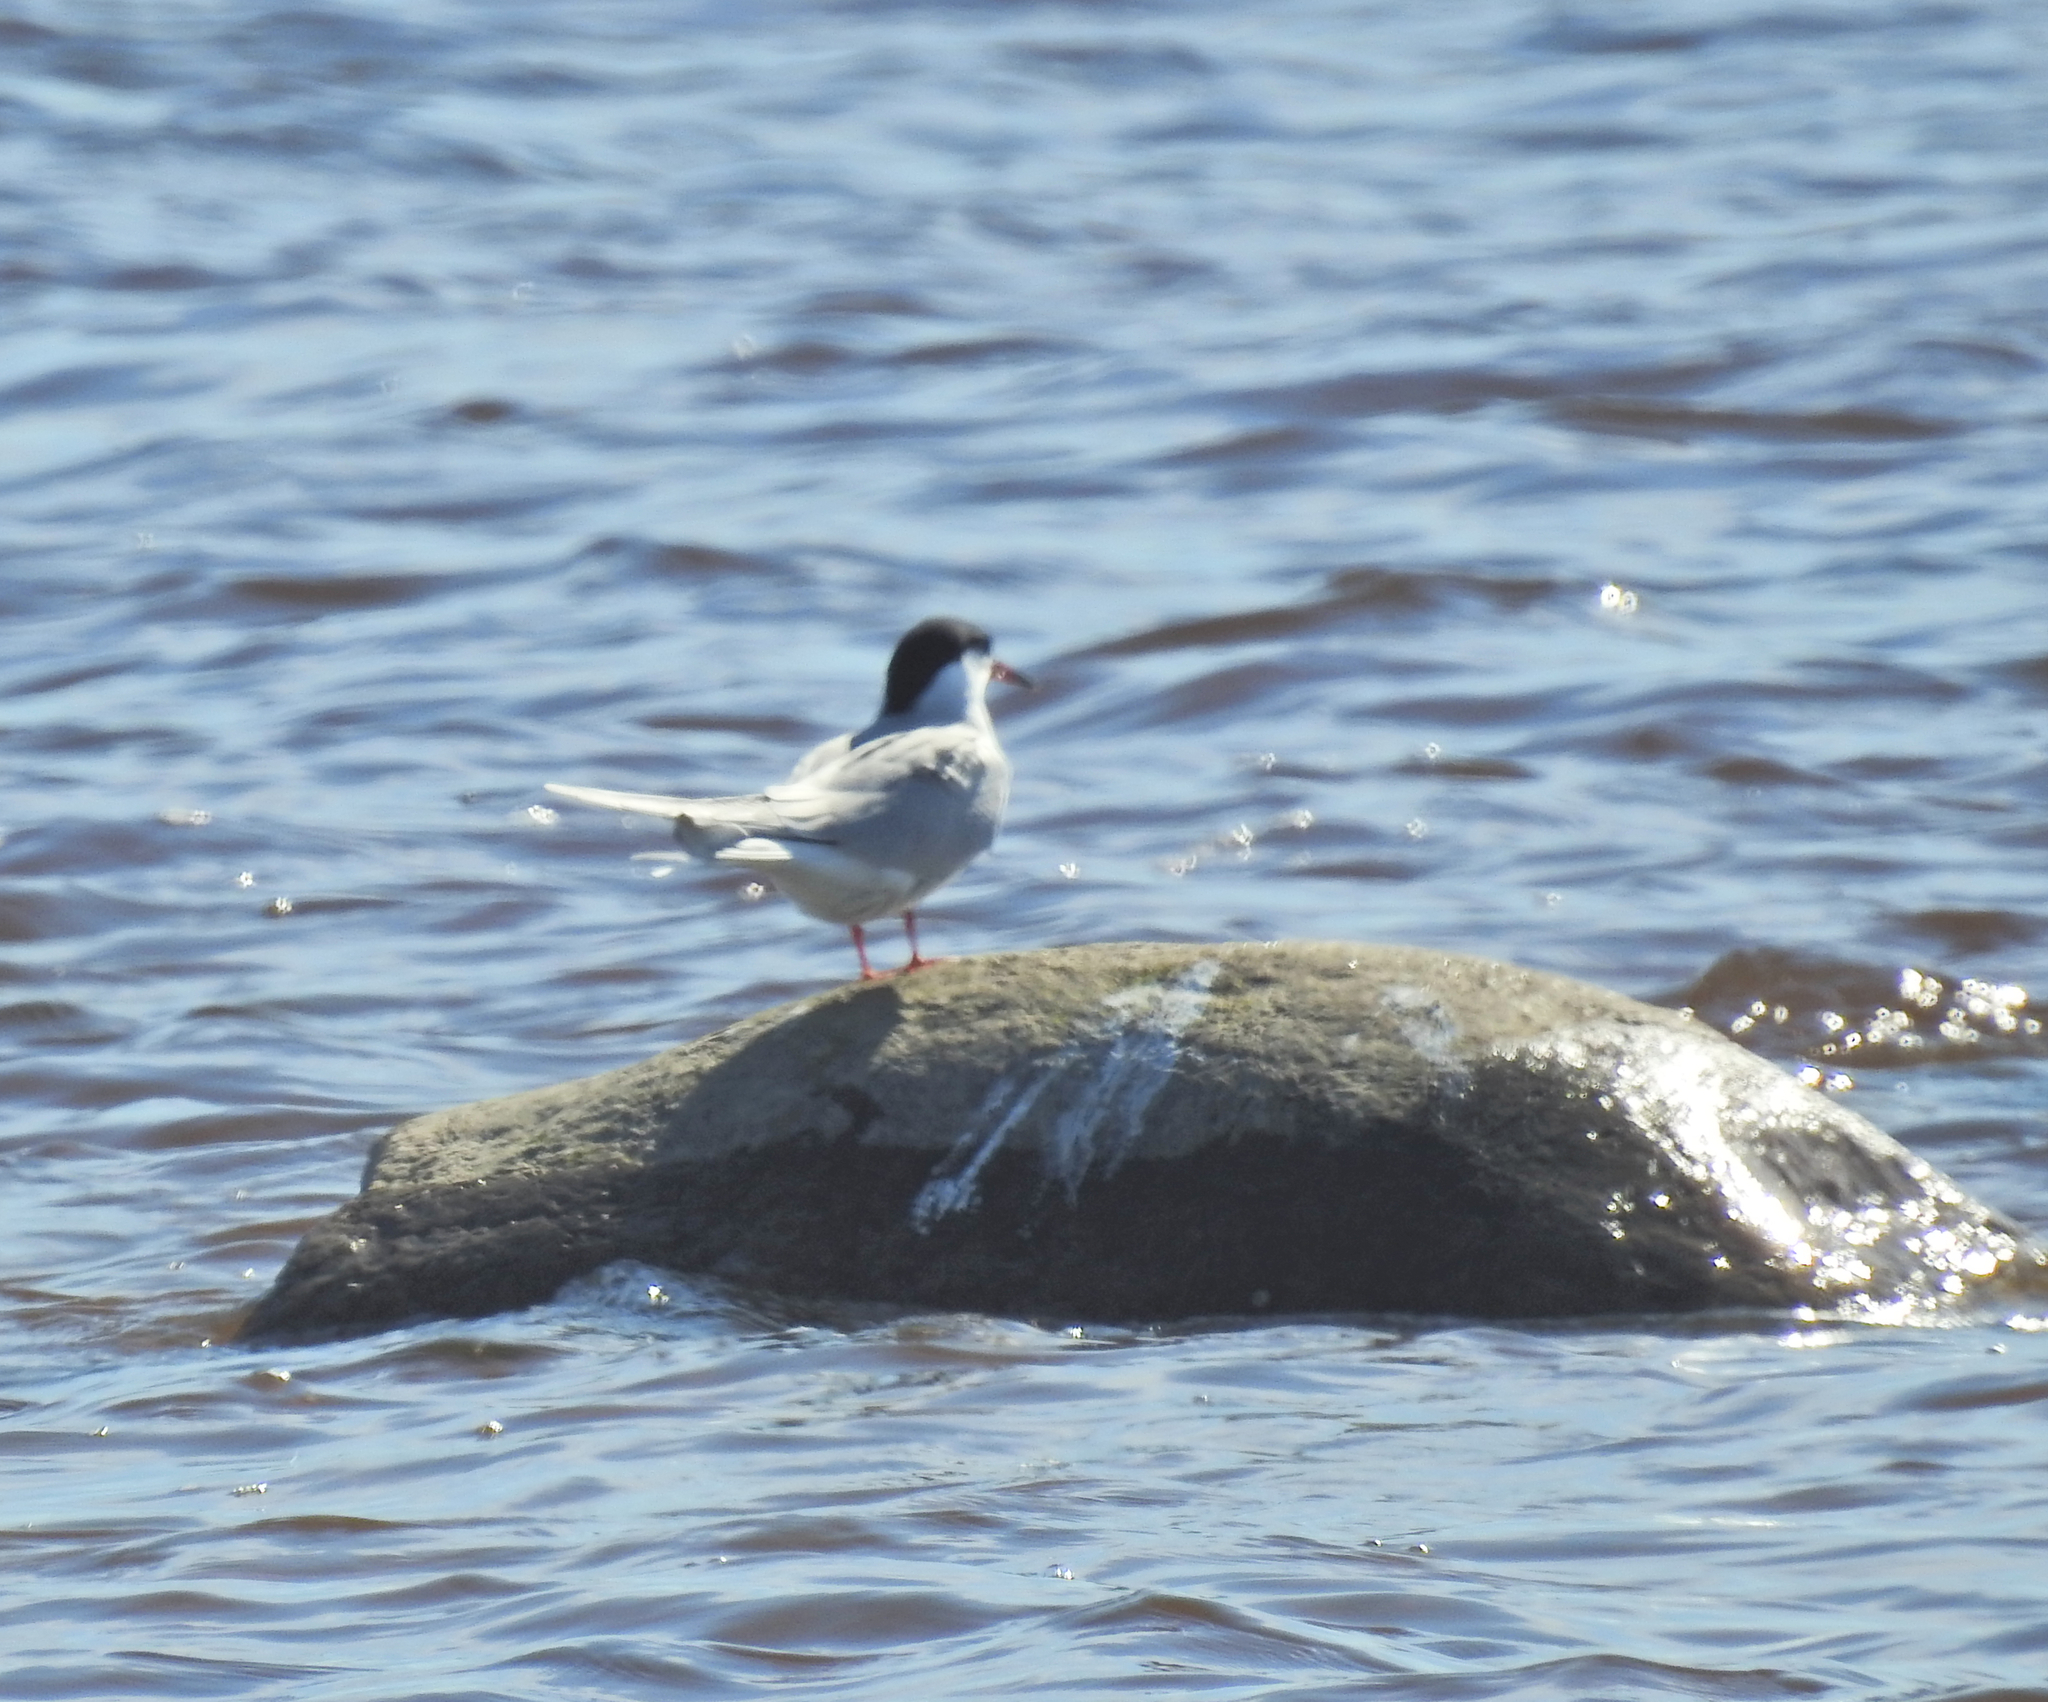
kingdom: Animalia
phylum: Chordata
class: Aves
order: Charadriiformes
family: Laridae
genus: Sterna
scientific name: Sterna hirundo
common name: Common tern
